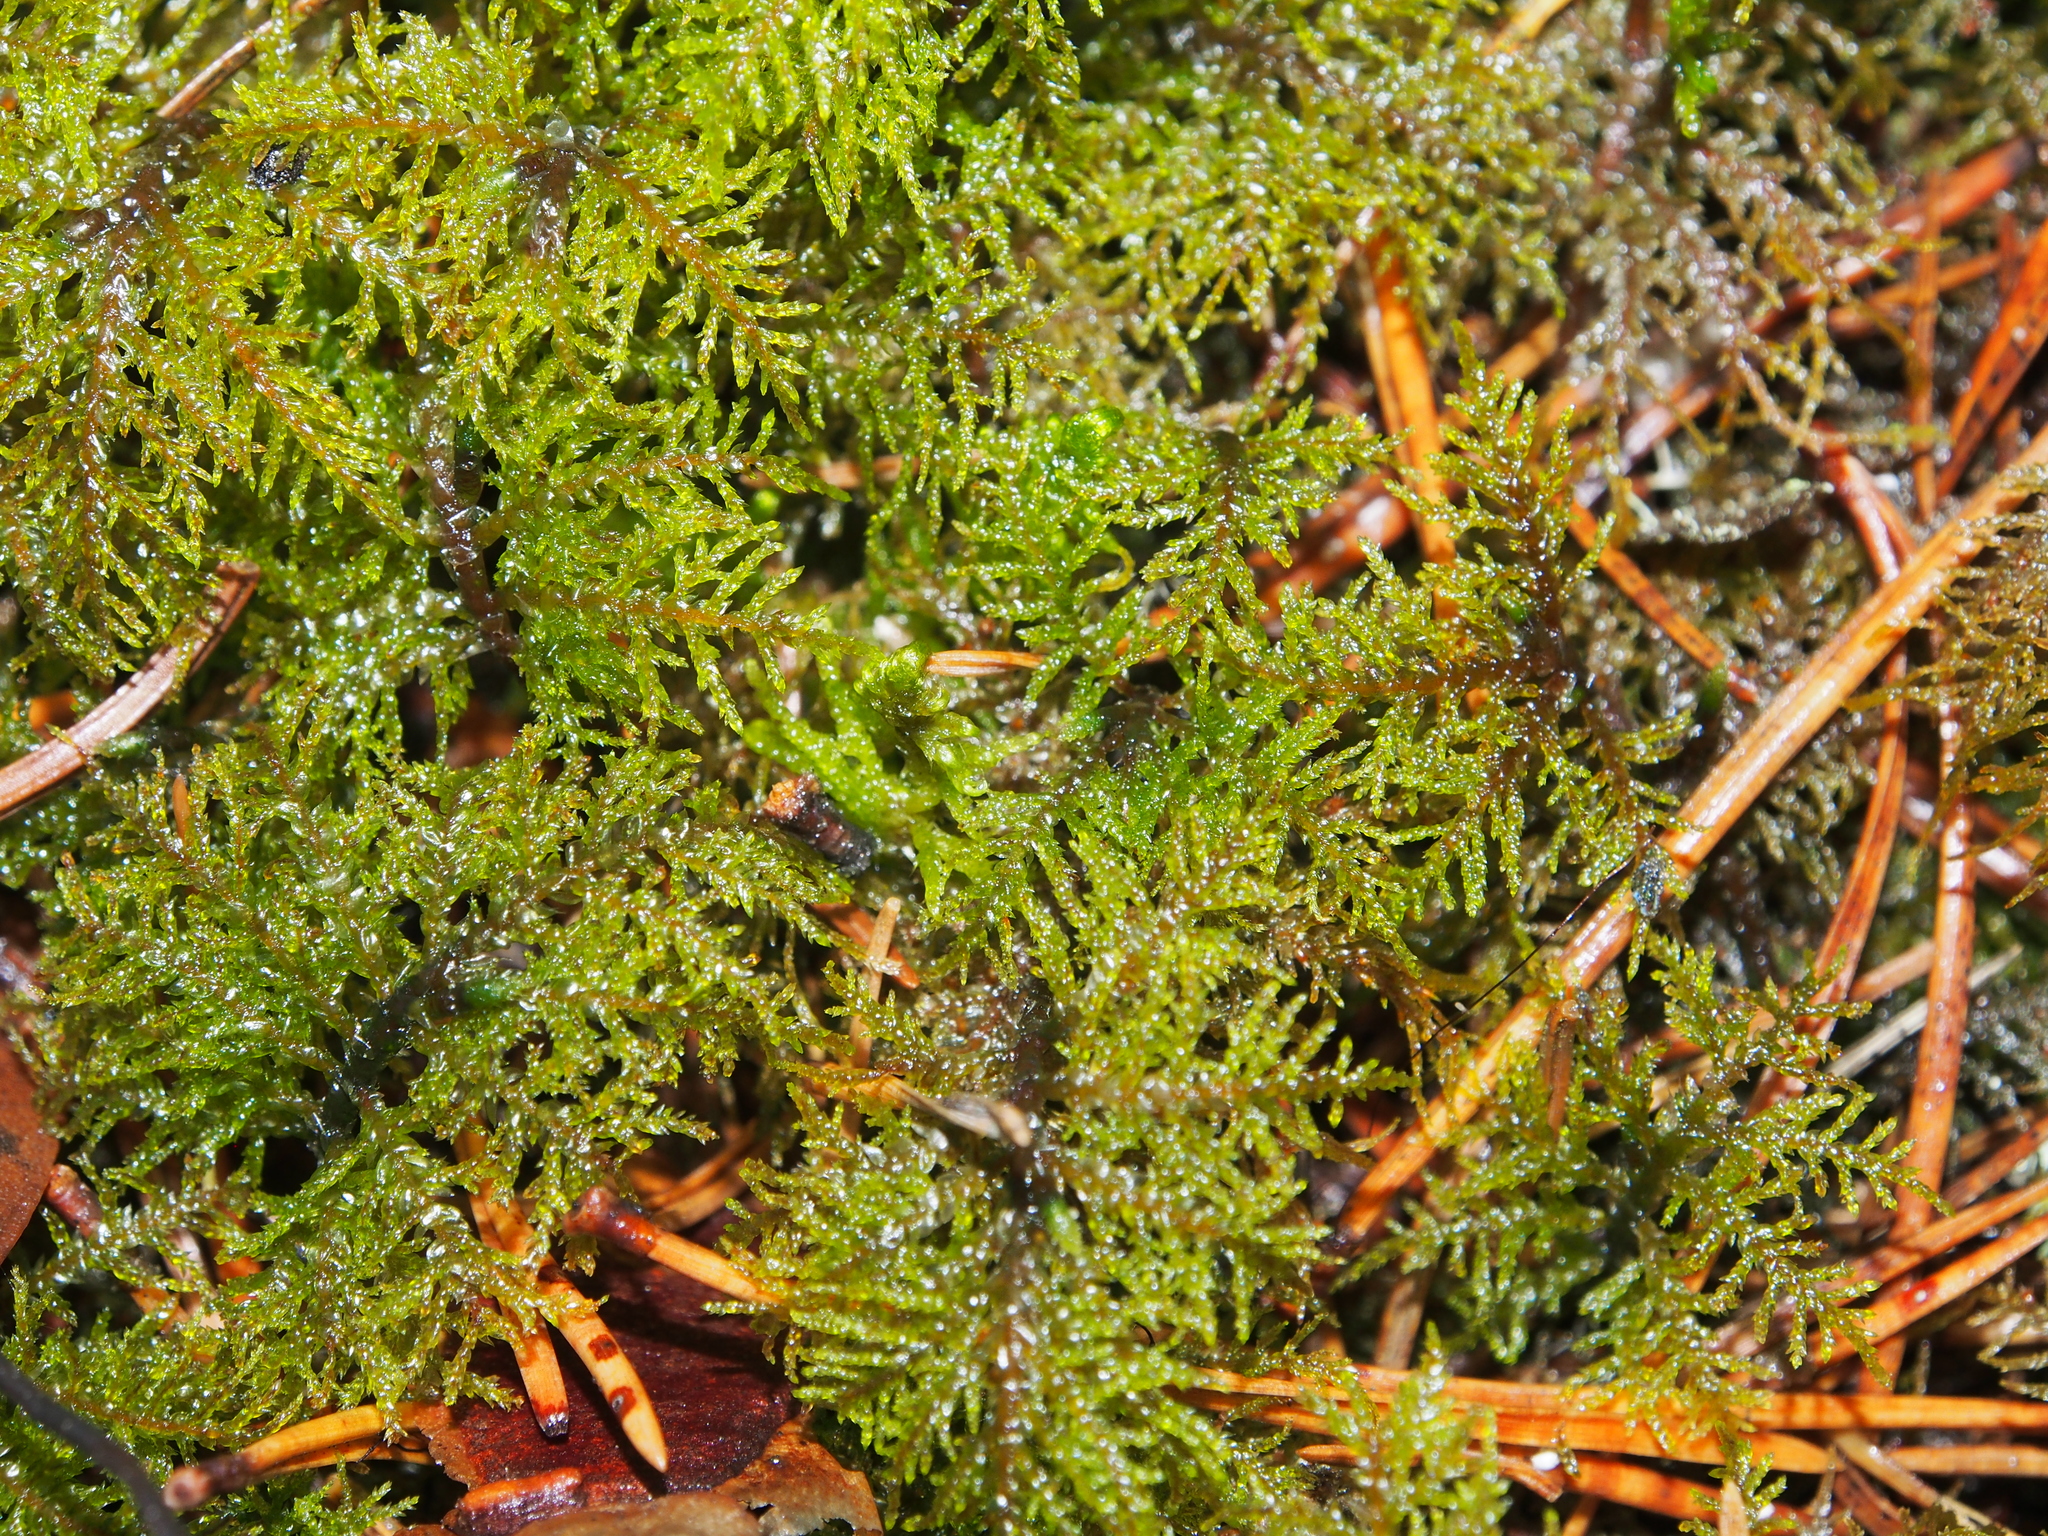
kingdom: Plantae
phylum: Bryophyta
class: Bryopsida
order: Hypnales
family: Hylocomiaceae
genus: Hylocomium
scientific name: Hylocomium splendens
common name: Stairstep moss
